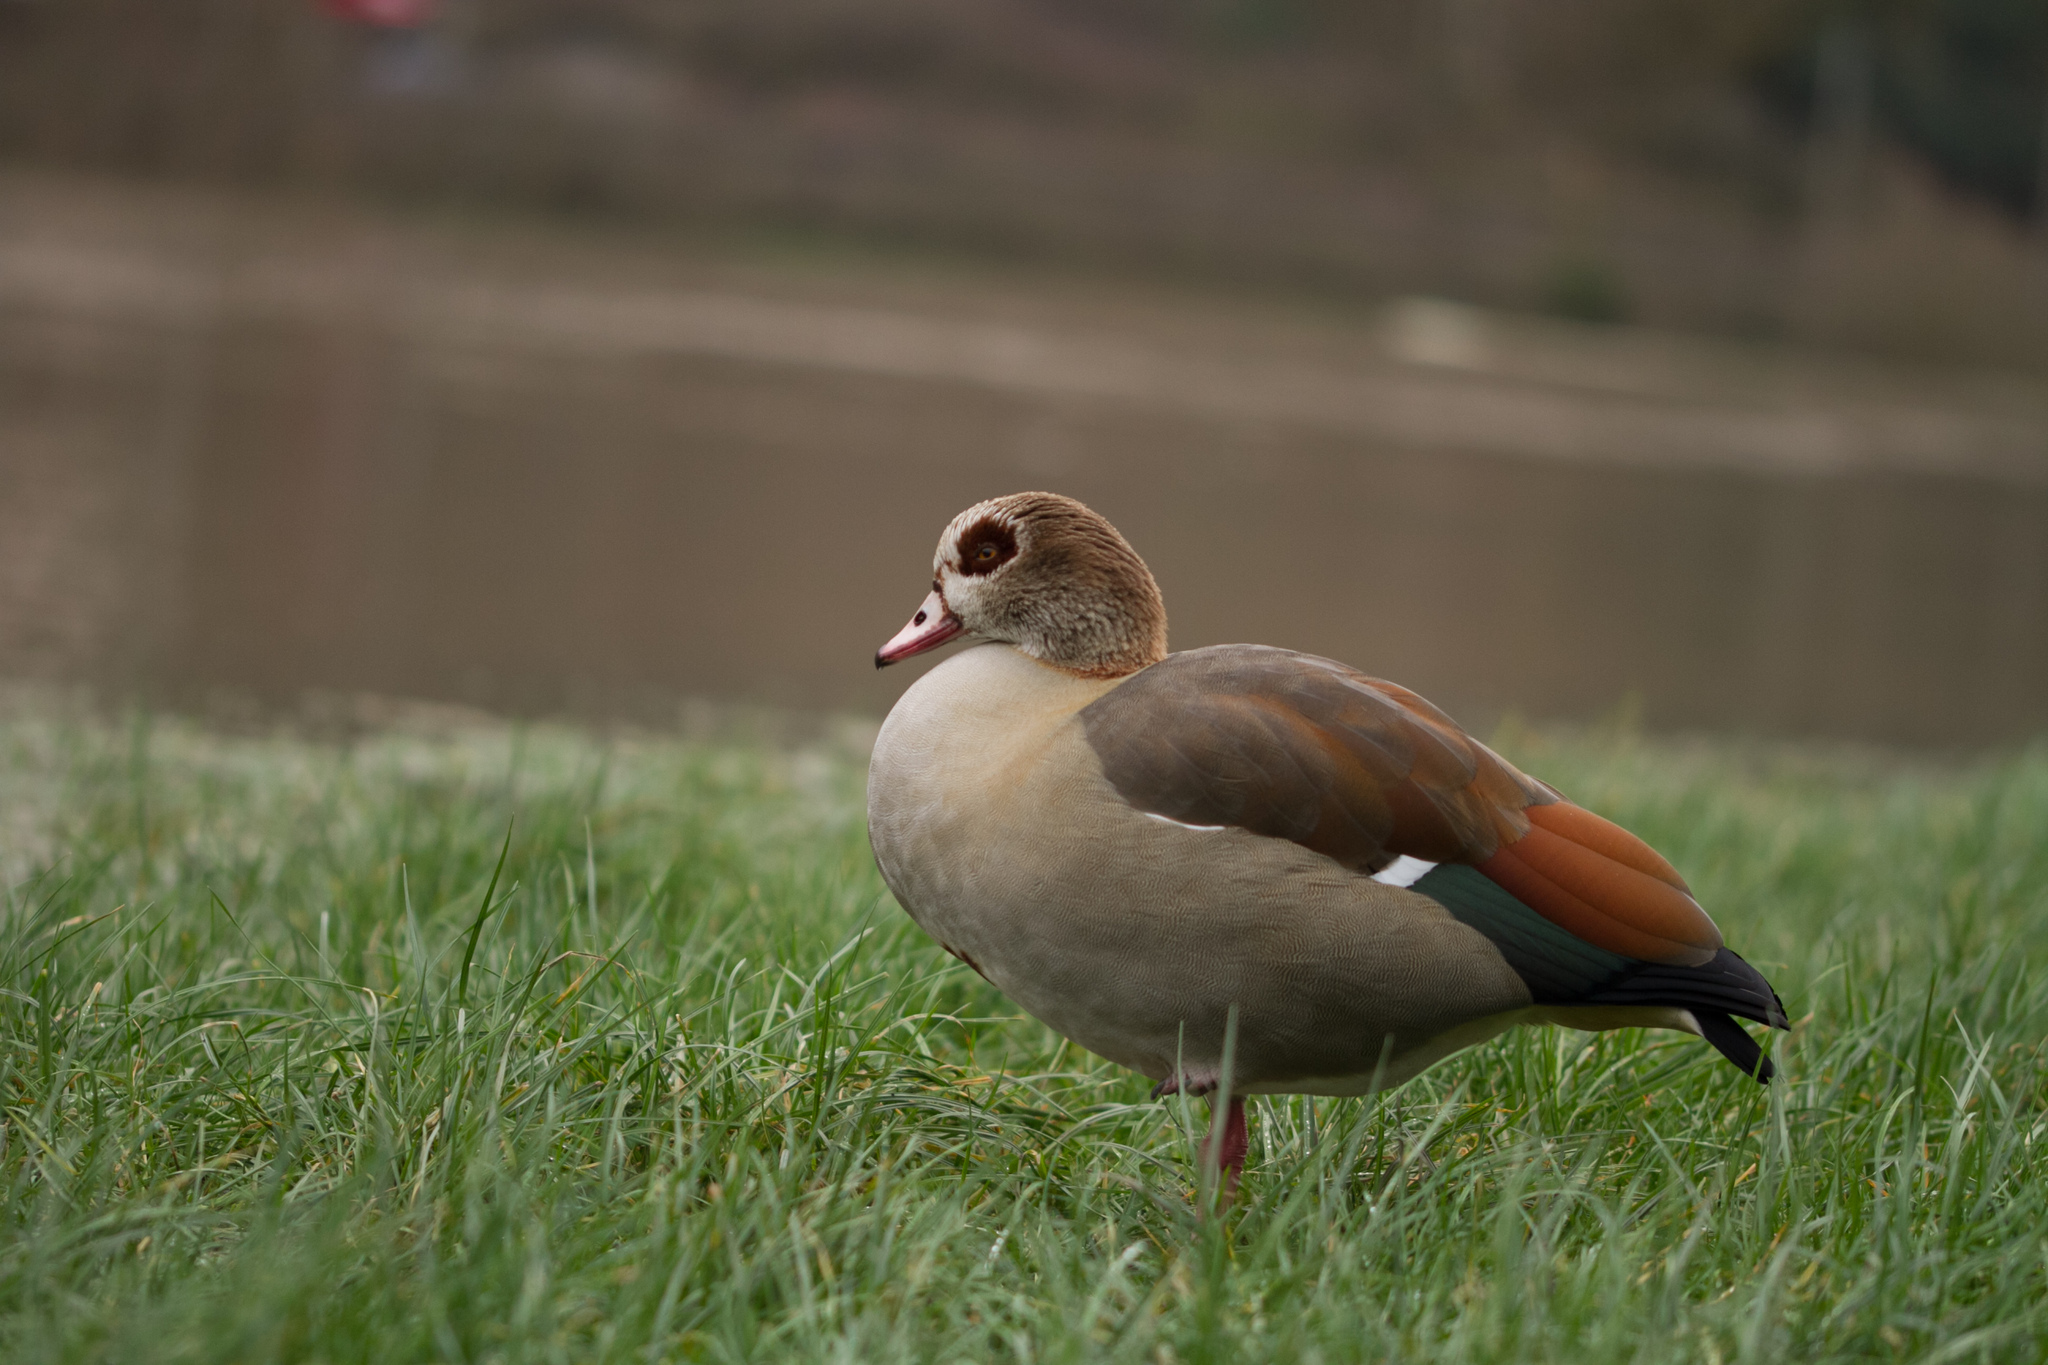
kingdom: Animalia
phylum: Chordata
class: Aves
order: Anseriformes
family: Anatidae
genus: Alopochen
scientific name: Alopochen aegyptiaca
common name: Egyptian goose
